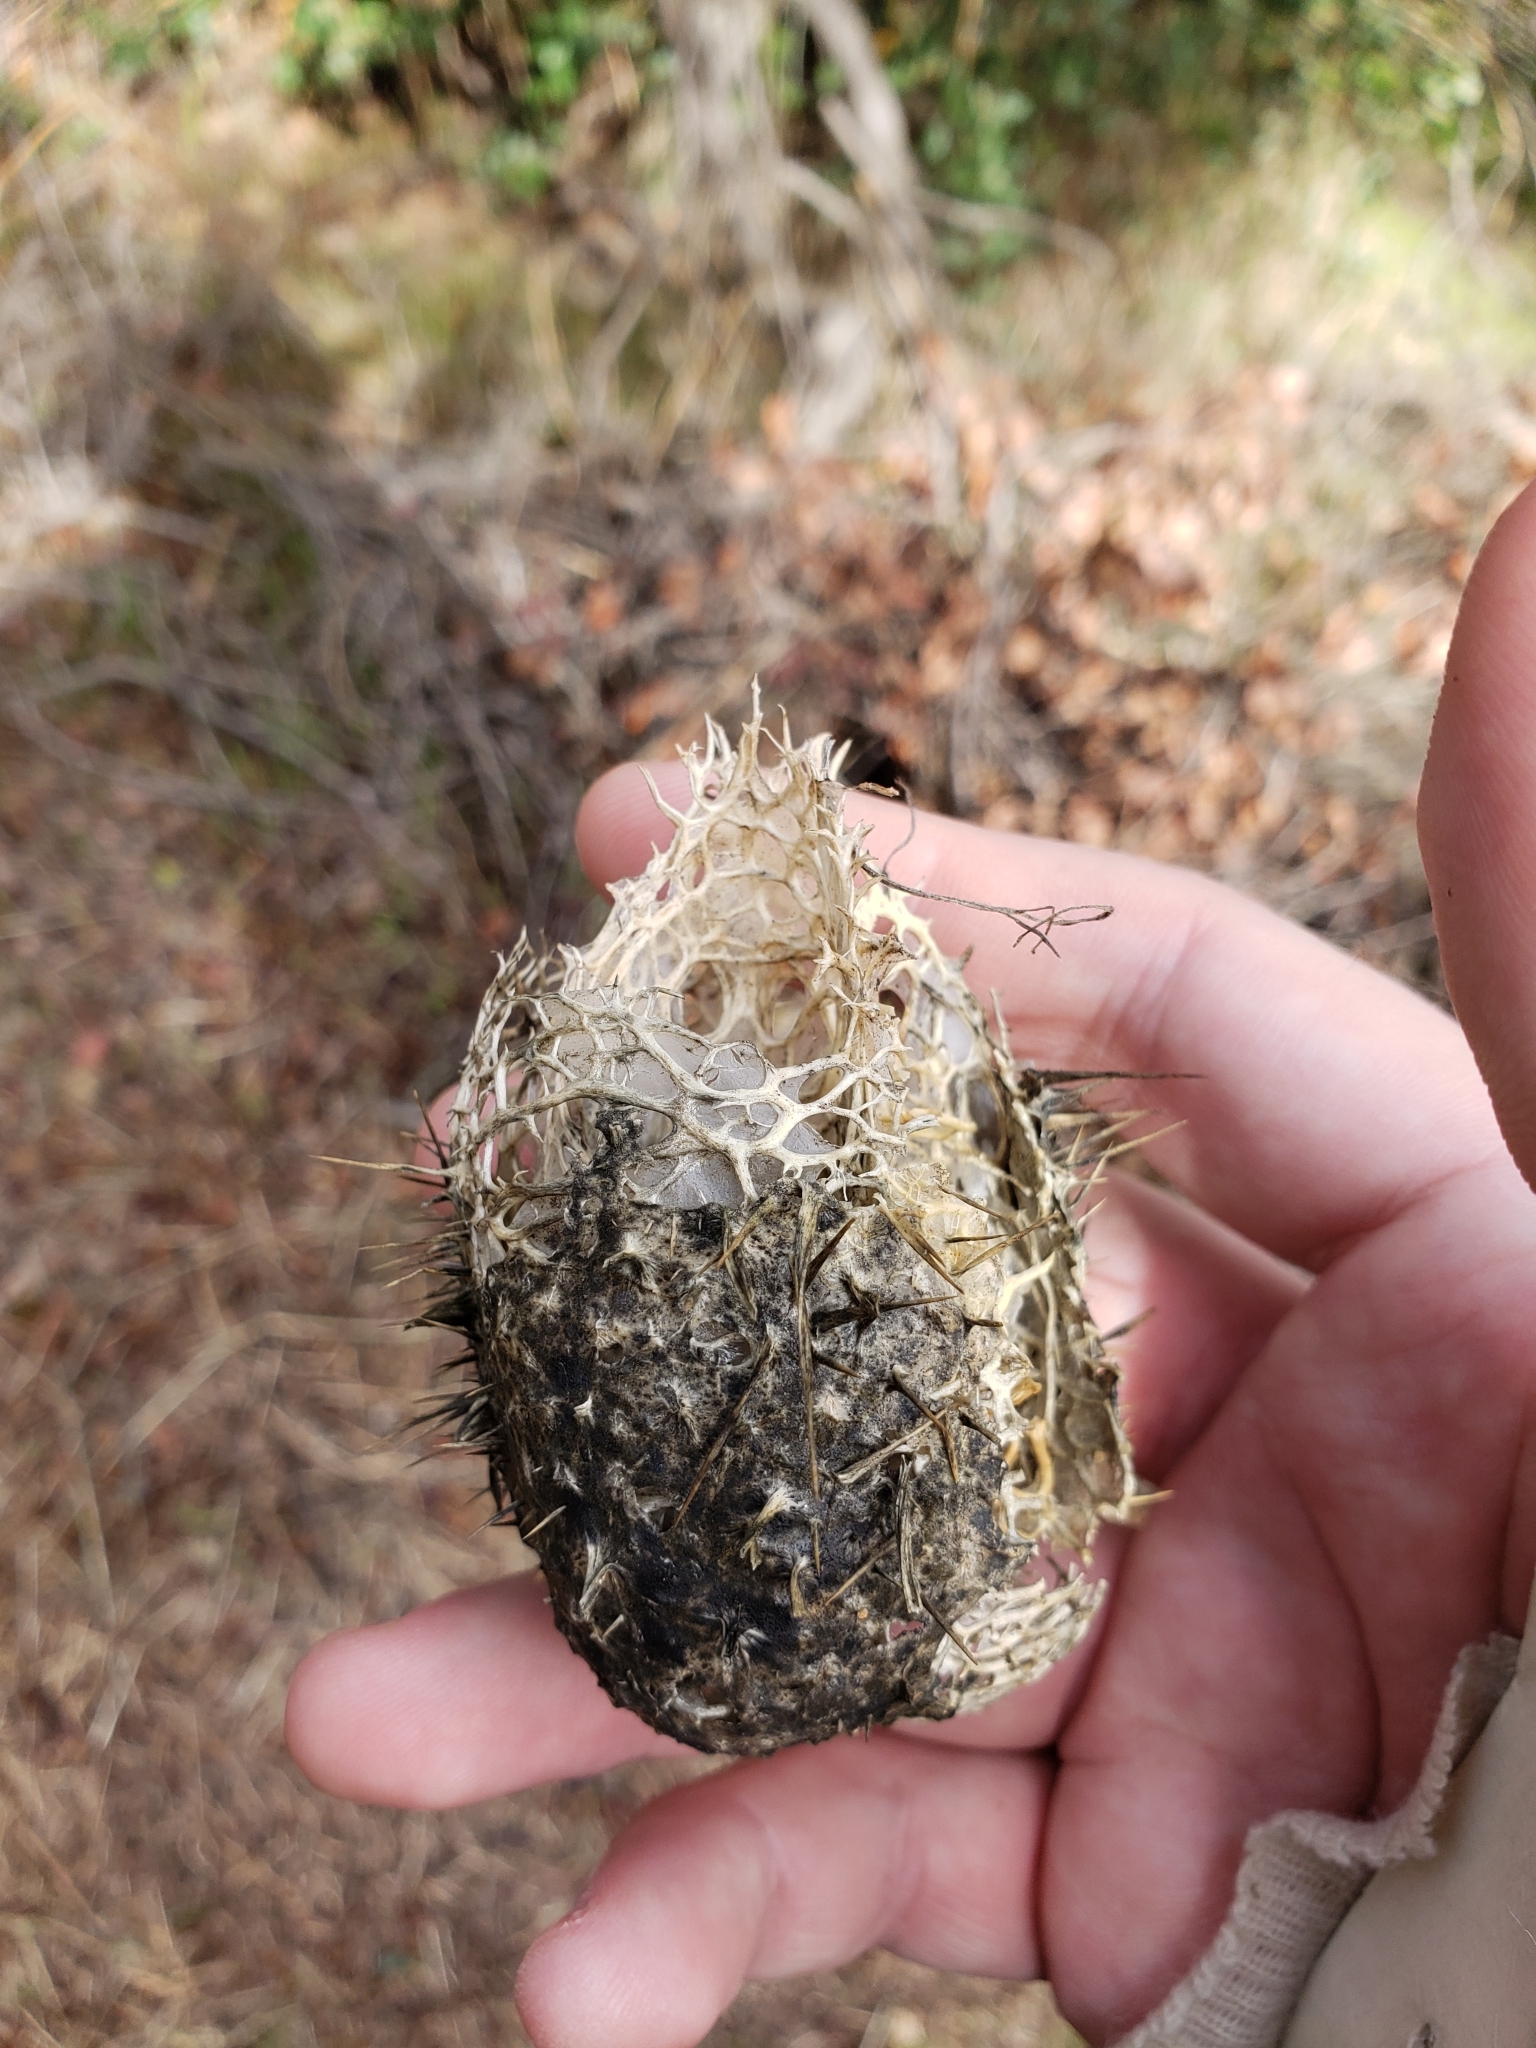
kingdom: Plantae
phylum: Tracheophyta
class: Magnoliopsida
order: Cucurbitales
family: Cucurbitaceae
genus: Marah
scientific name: Marah macrocarpa
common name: Cucamonga manroot
